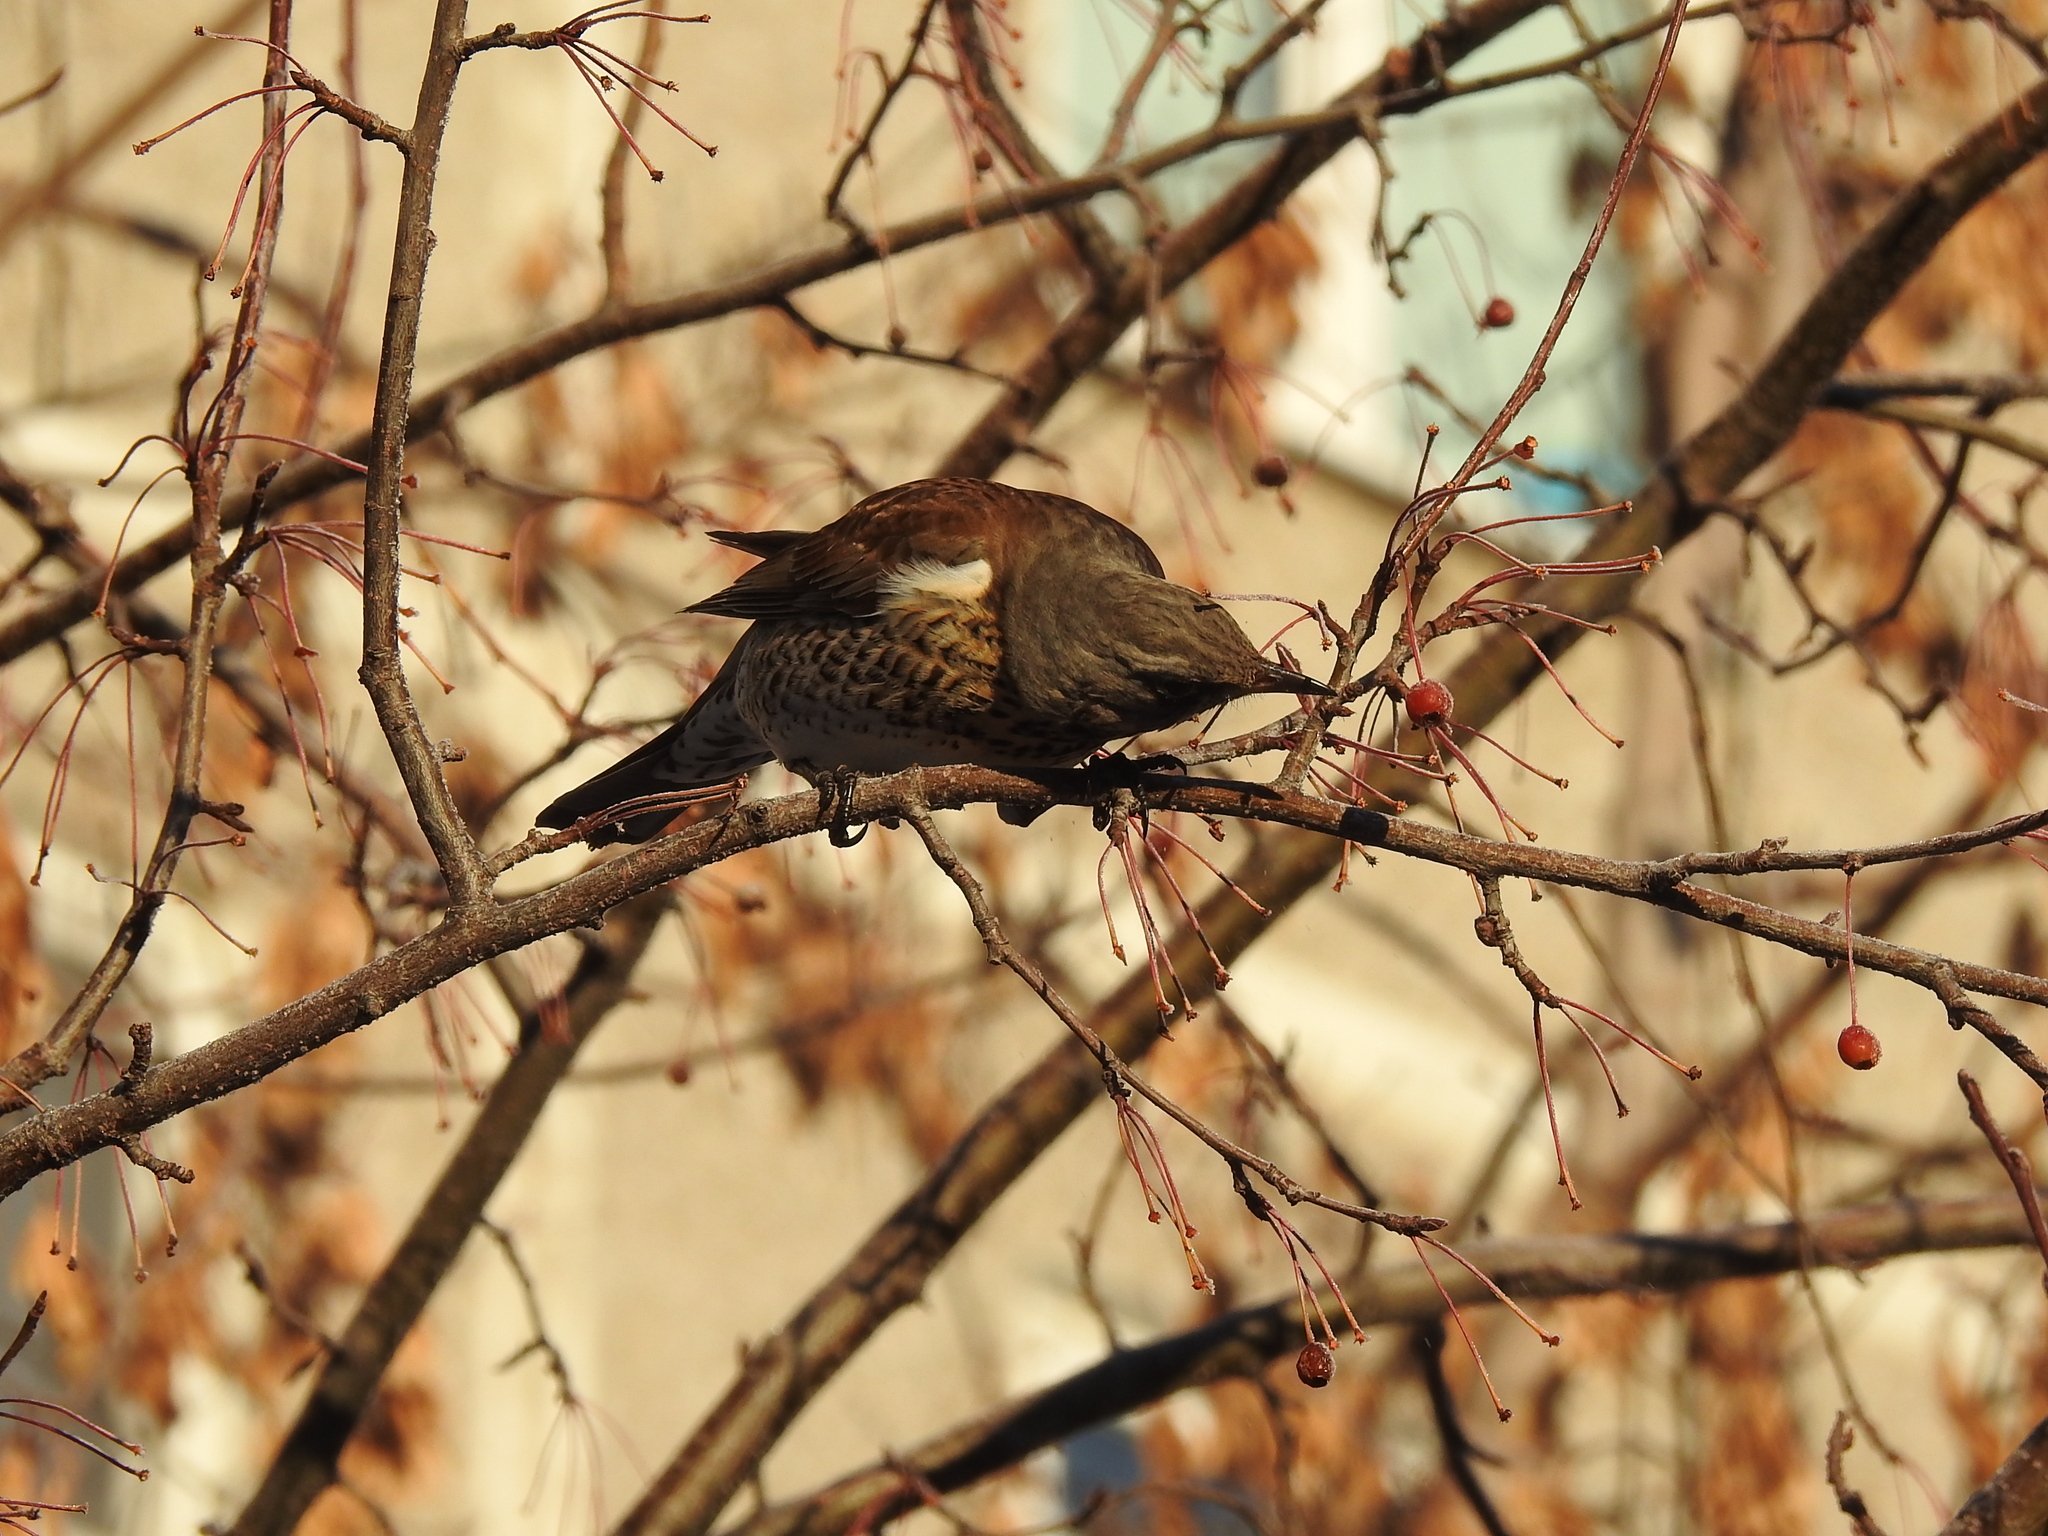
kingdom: Animalia
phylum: Chordata
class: Aves
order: Passeriformes
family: Turdidae
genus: Turdus
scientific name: Turdus pilaris
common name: Fieldfare
